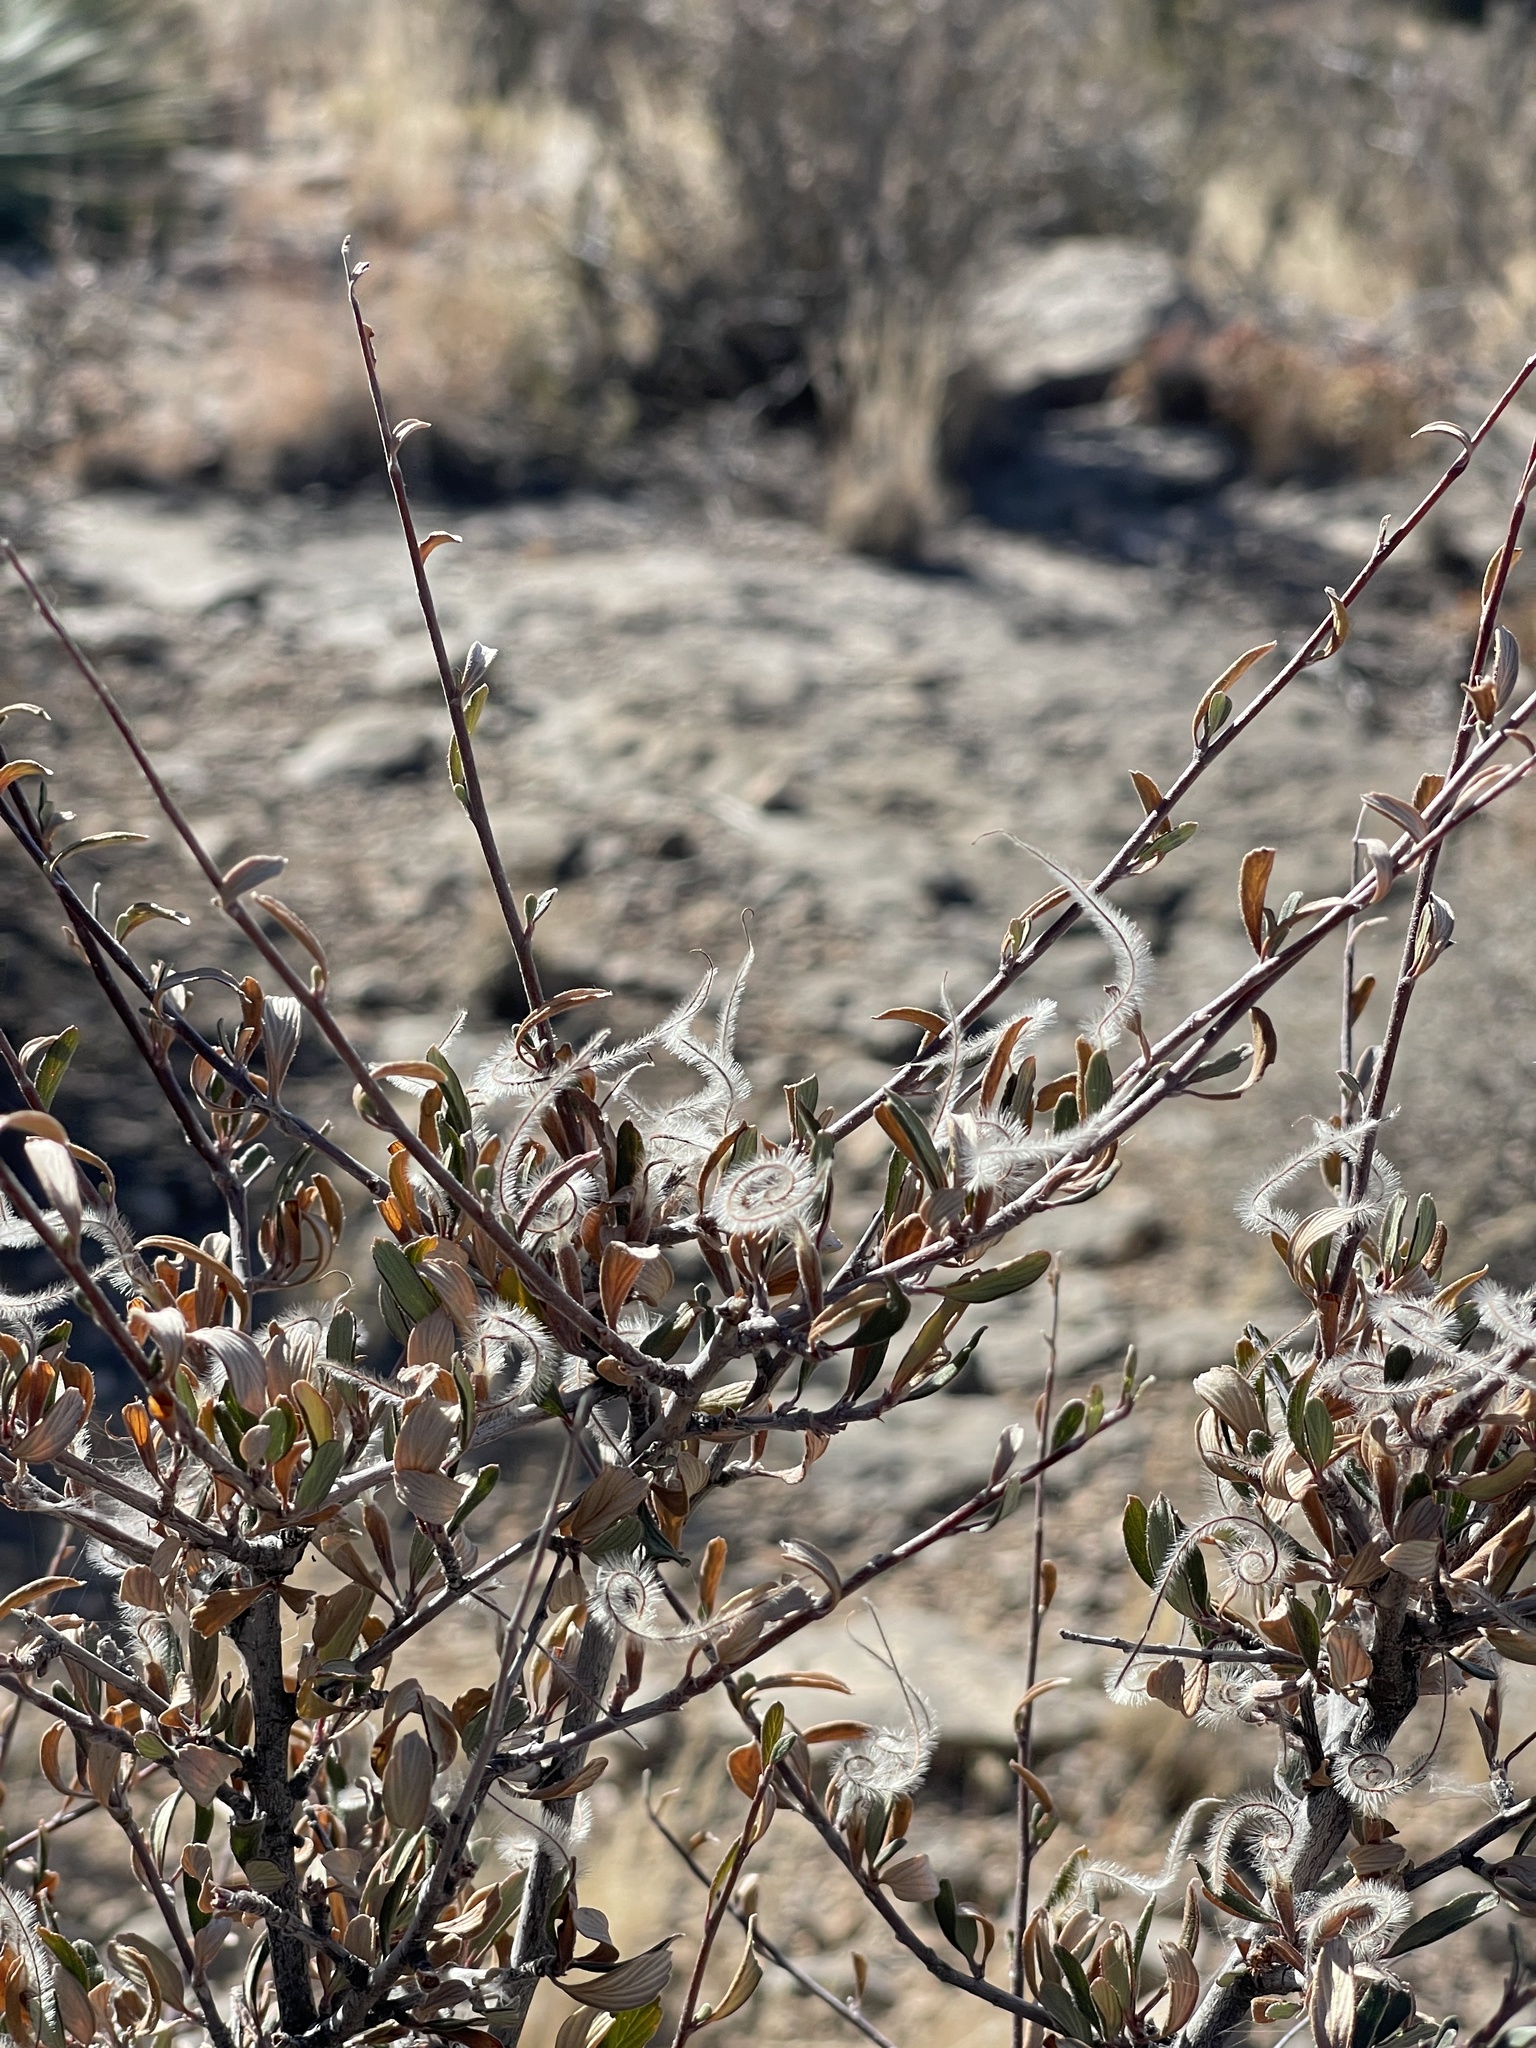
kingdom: Plantae
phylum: Tracheophyta
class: Magnoliopsida
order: Rosales
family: Rosaceae
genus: Cercocarpus
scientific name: Cercocarpus breviflorus
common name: Wright's mountain-mahogany
